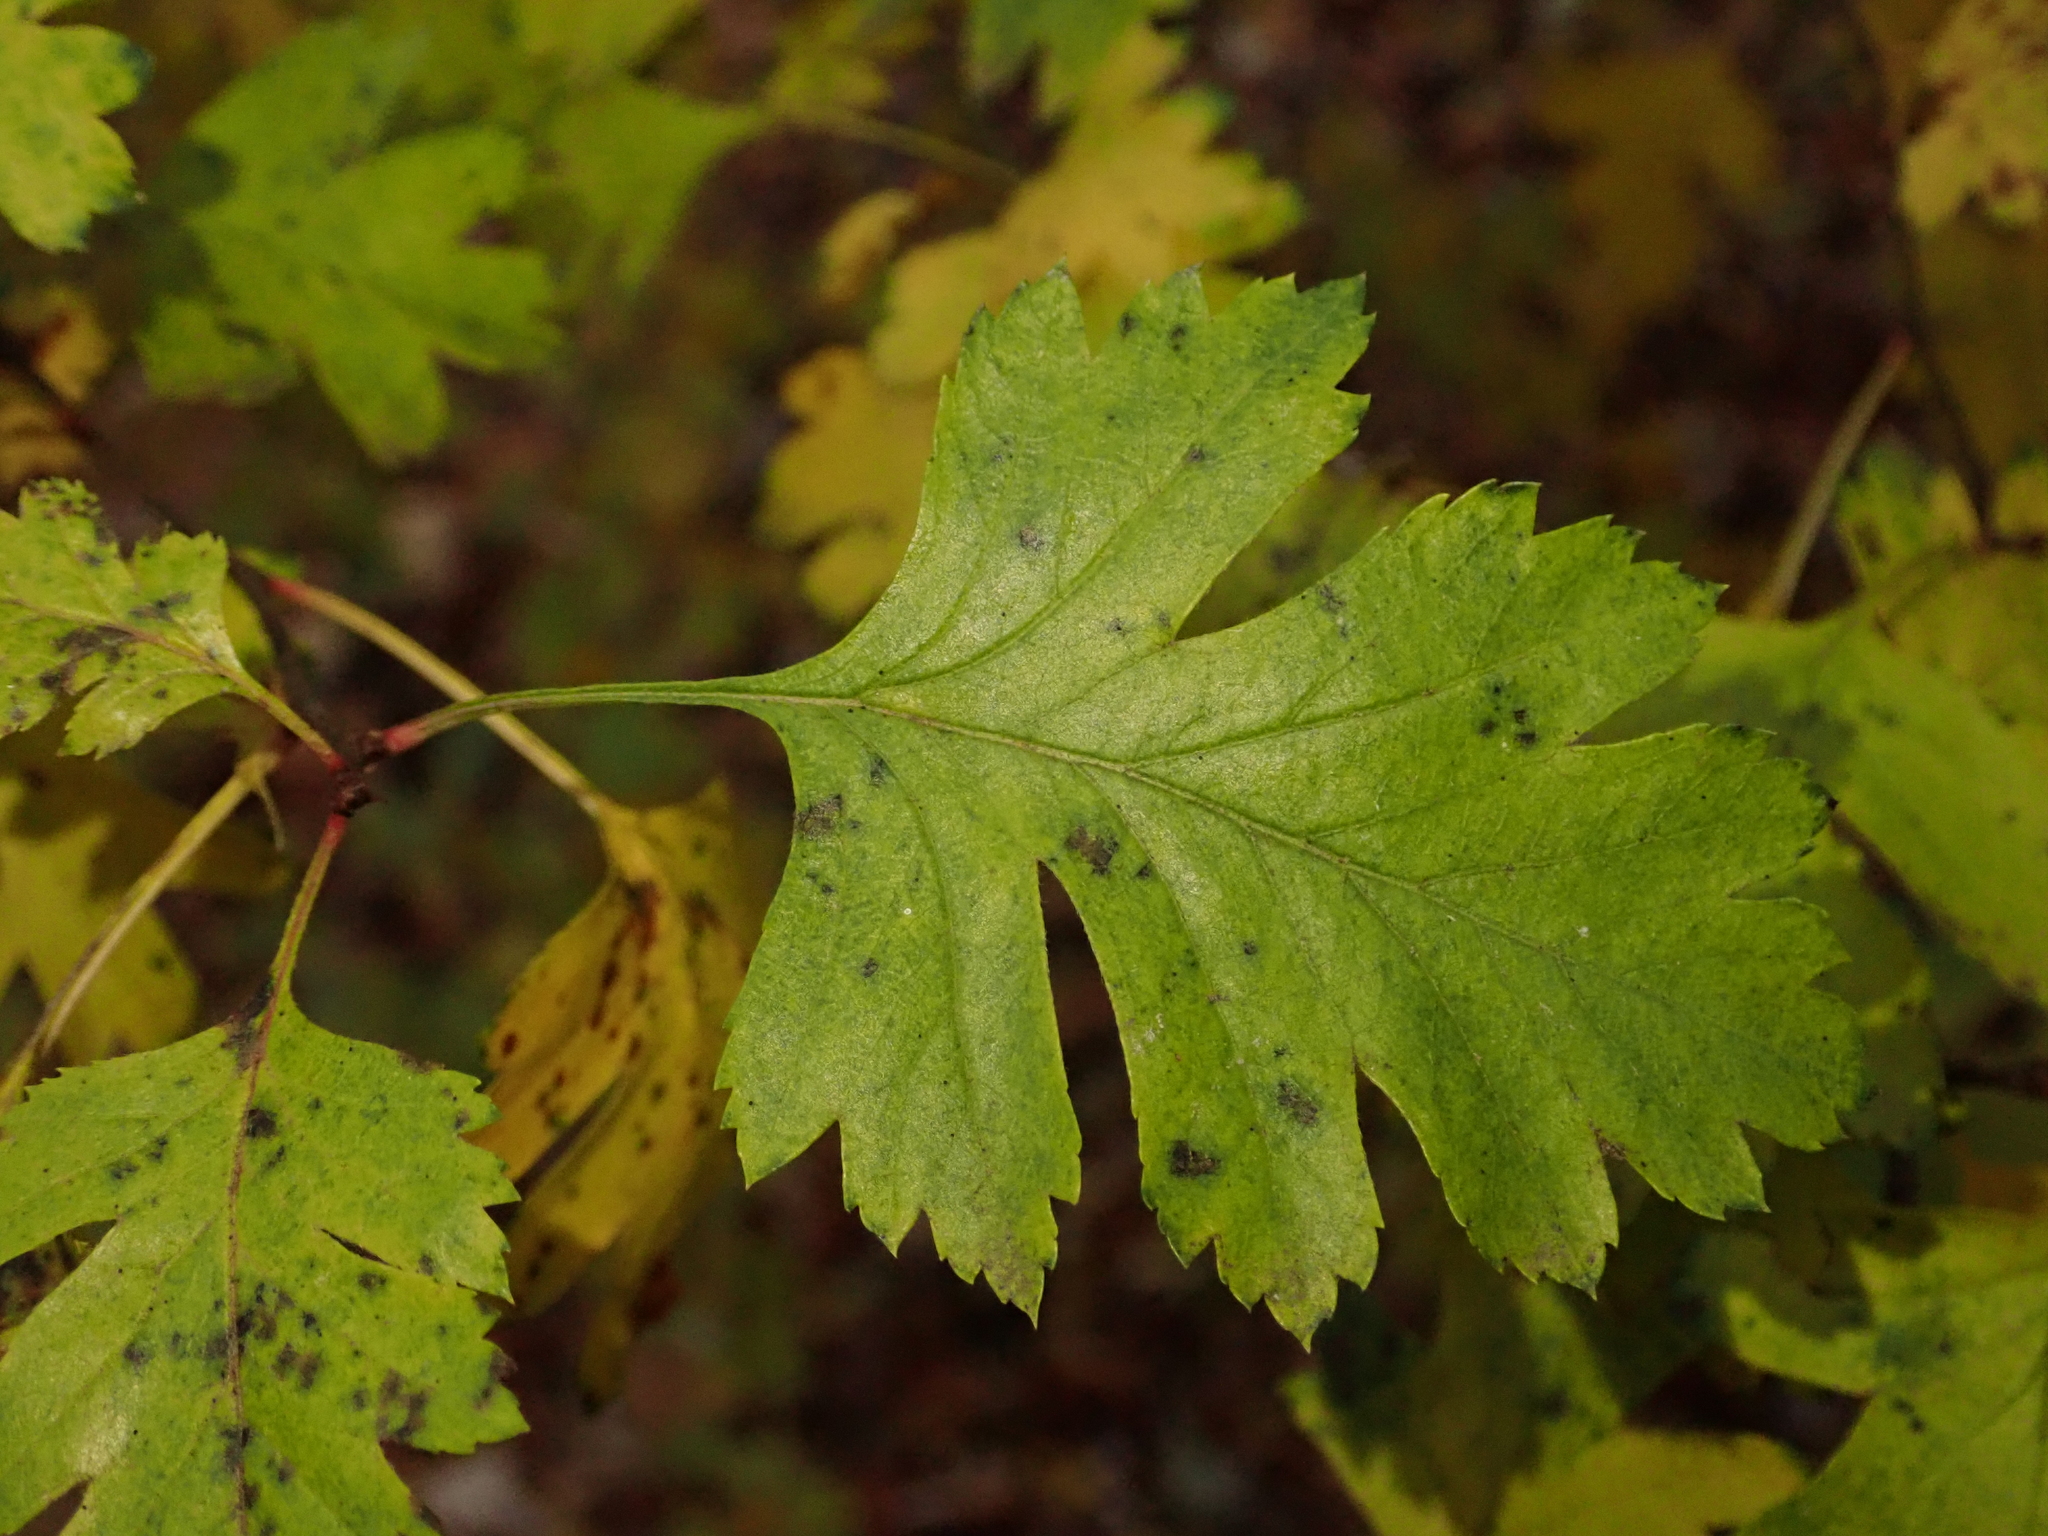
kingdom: Plantae
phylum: Tracheophyta
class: Magnoliopsida
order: Rosales
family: Rosaceae
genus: Crataegus
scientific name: Crataegus monogyna
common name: Hawthorn
